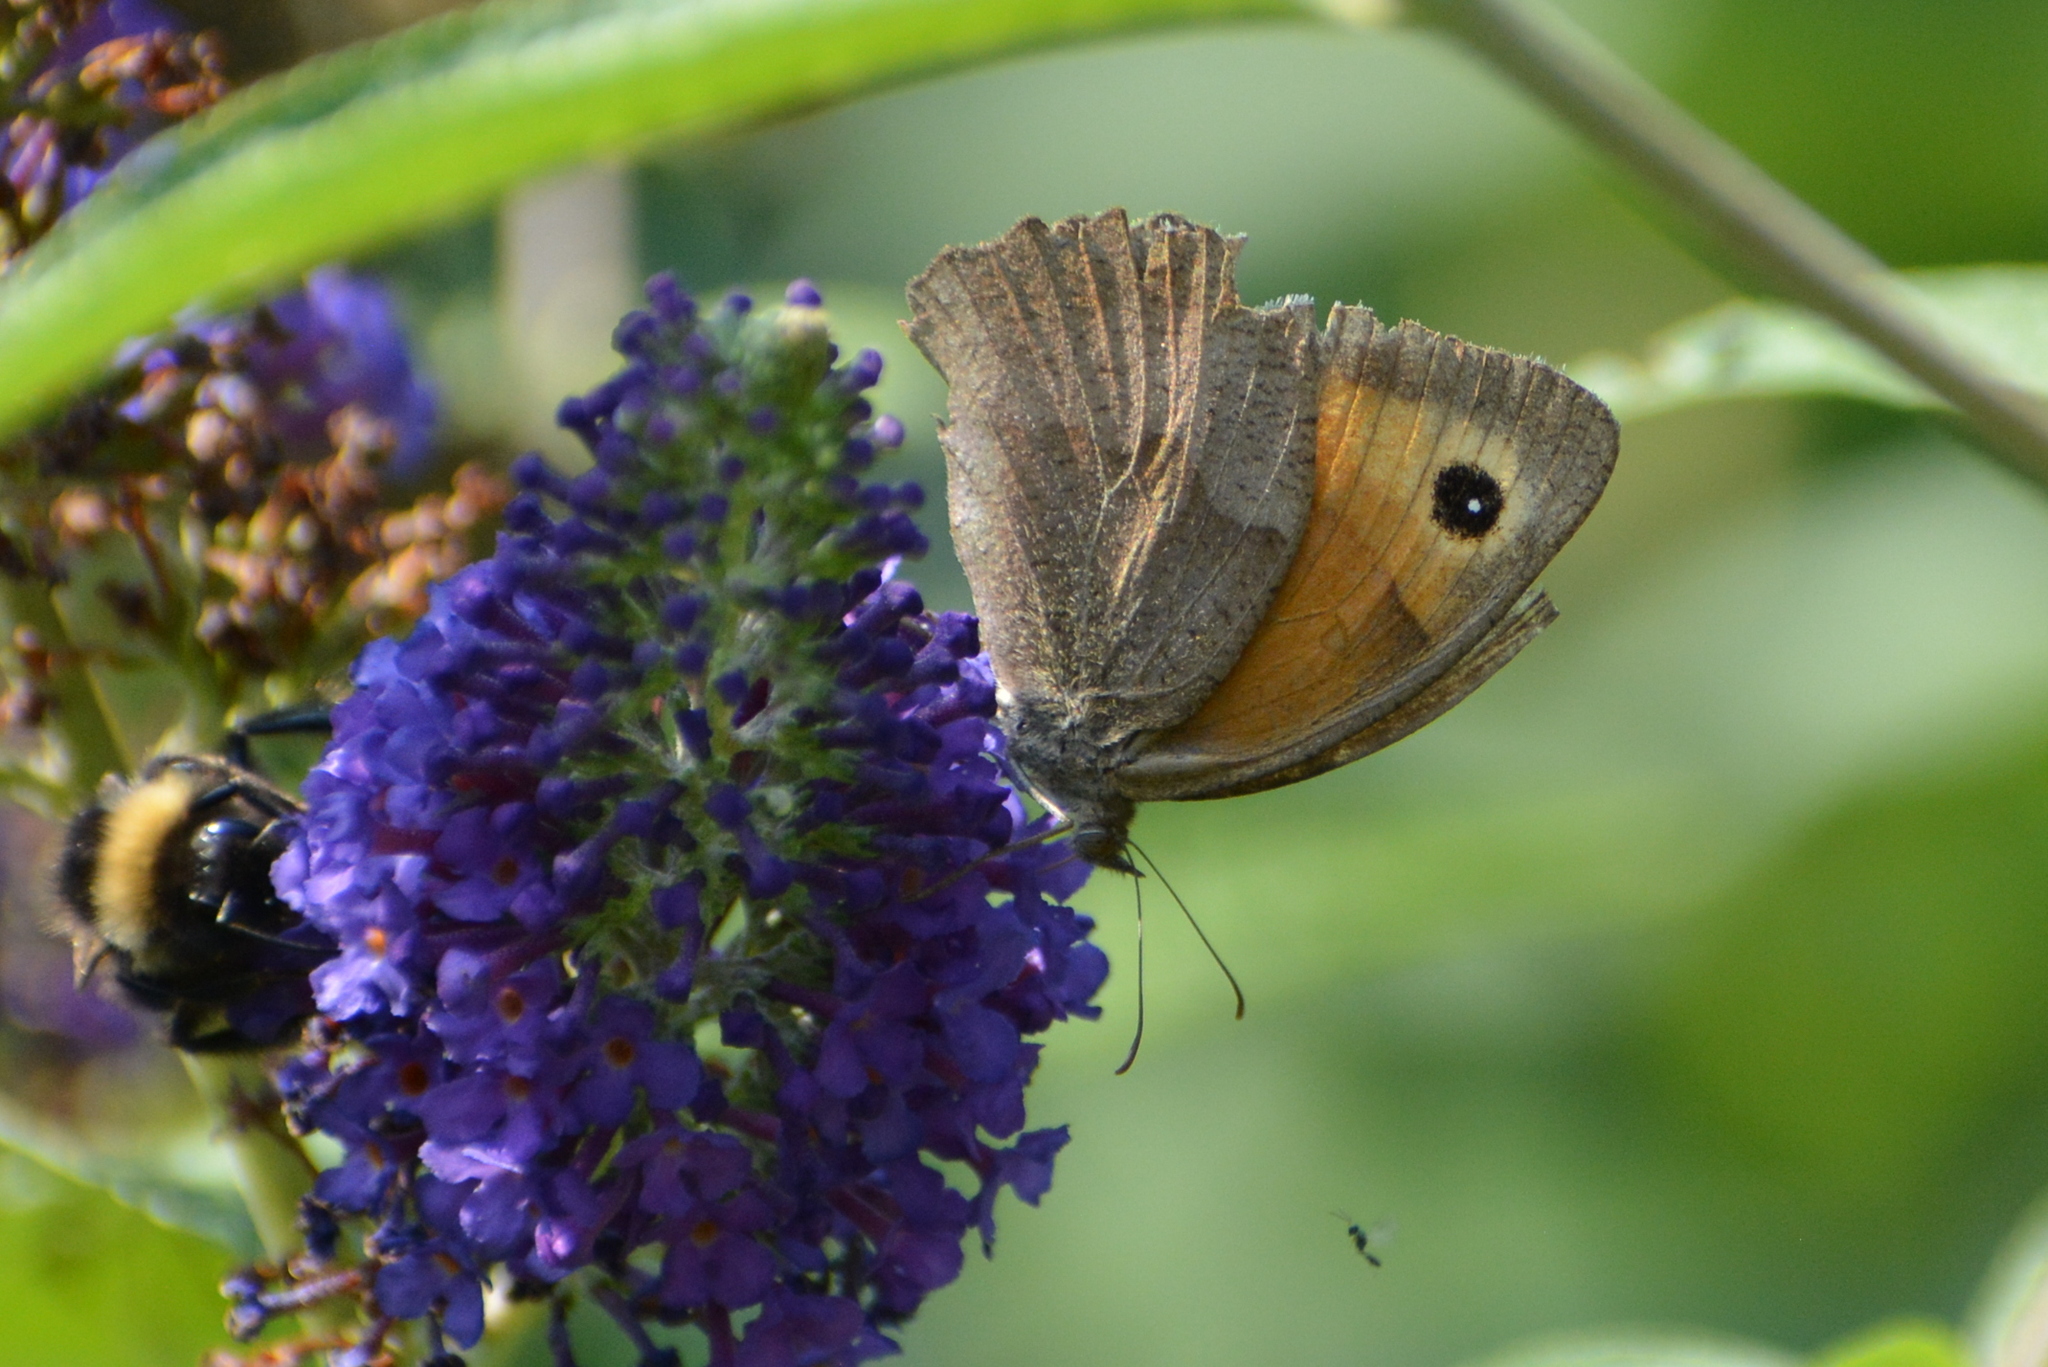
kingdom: Animalia
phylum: Arthropoda
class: Insecta
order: Lepidoptera
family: Nymphalidae
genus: Maniola
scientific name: Maniola jurtina
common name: Meadow brown
